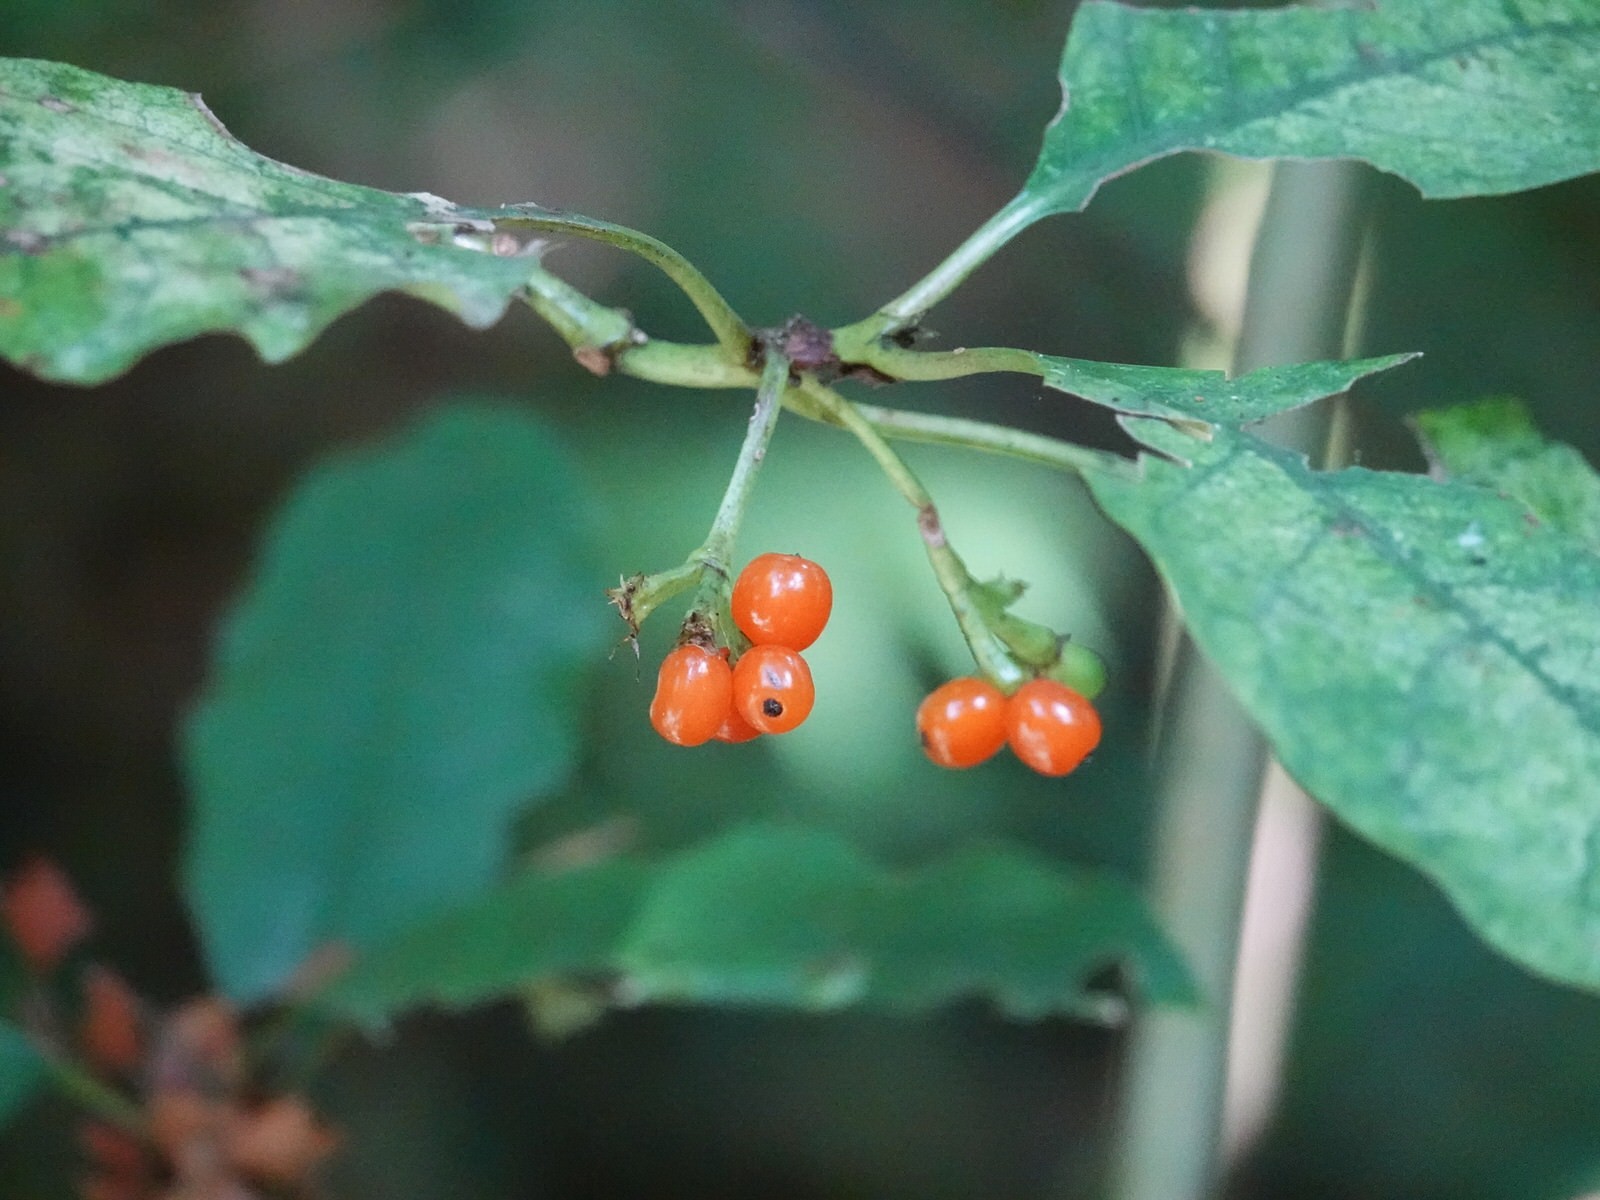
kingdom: Plantae
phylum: Tracheophyta
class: Magnoliopsida
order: Gentianales
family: Rubiaceae
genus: Coprosma
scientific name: Coprosma autumnalis
